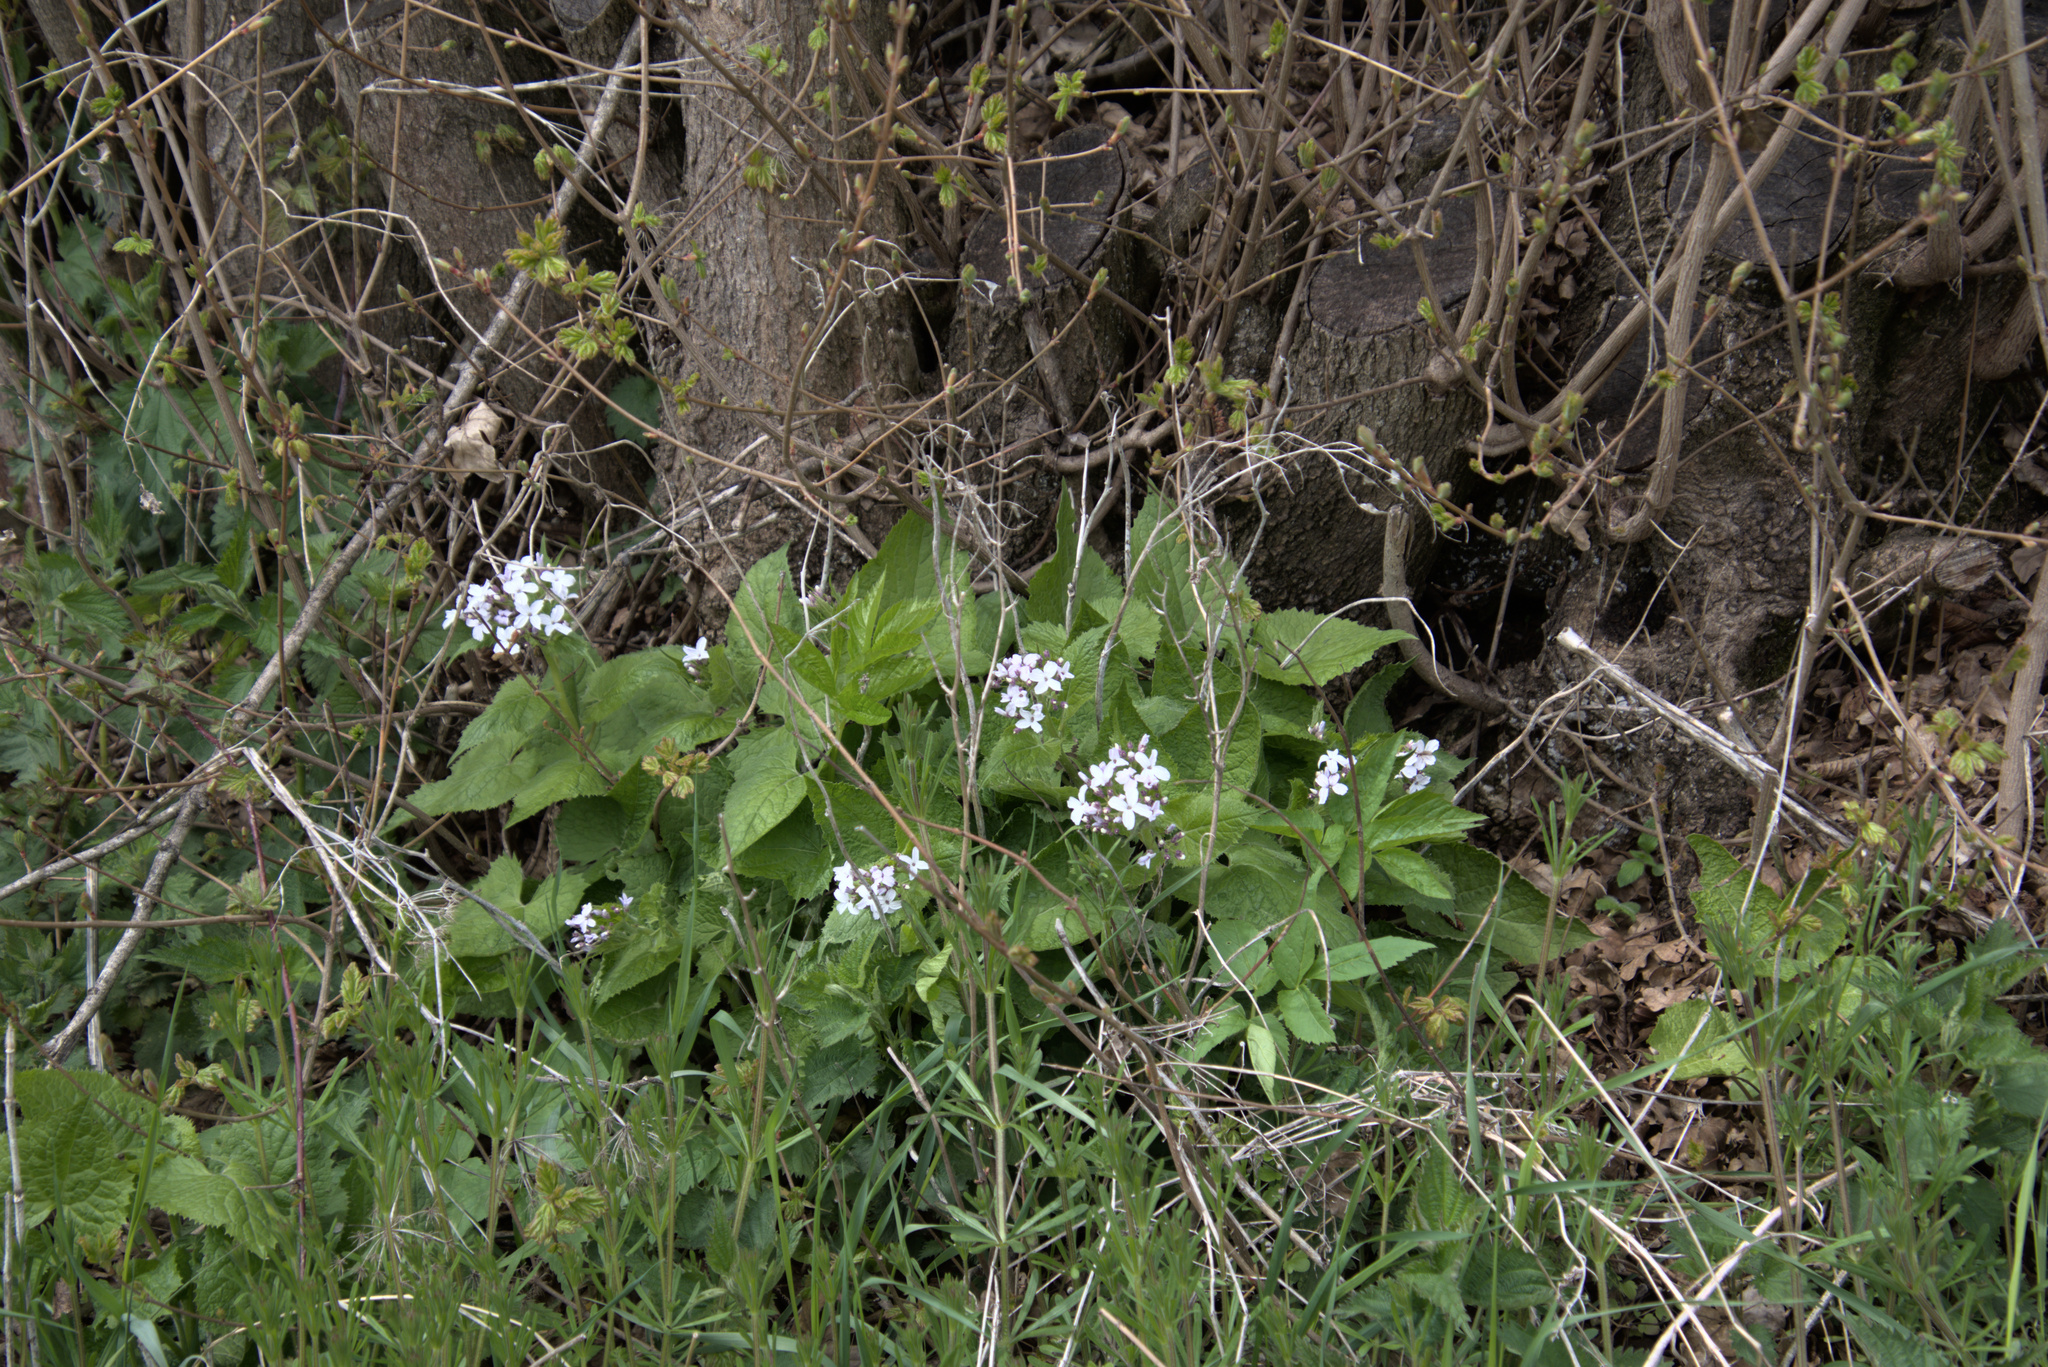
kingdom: Plantae
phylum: Tracheophyta
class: Magnoliopsida
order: Brassicales
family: Brassicaceae
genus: Lunaria
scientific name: Lunaria rediviva
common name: Perennial honesty
